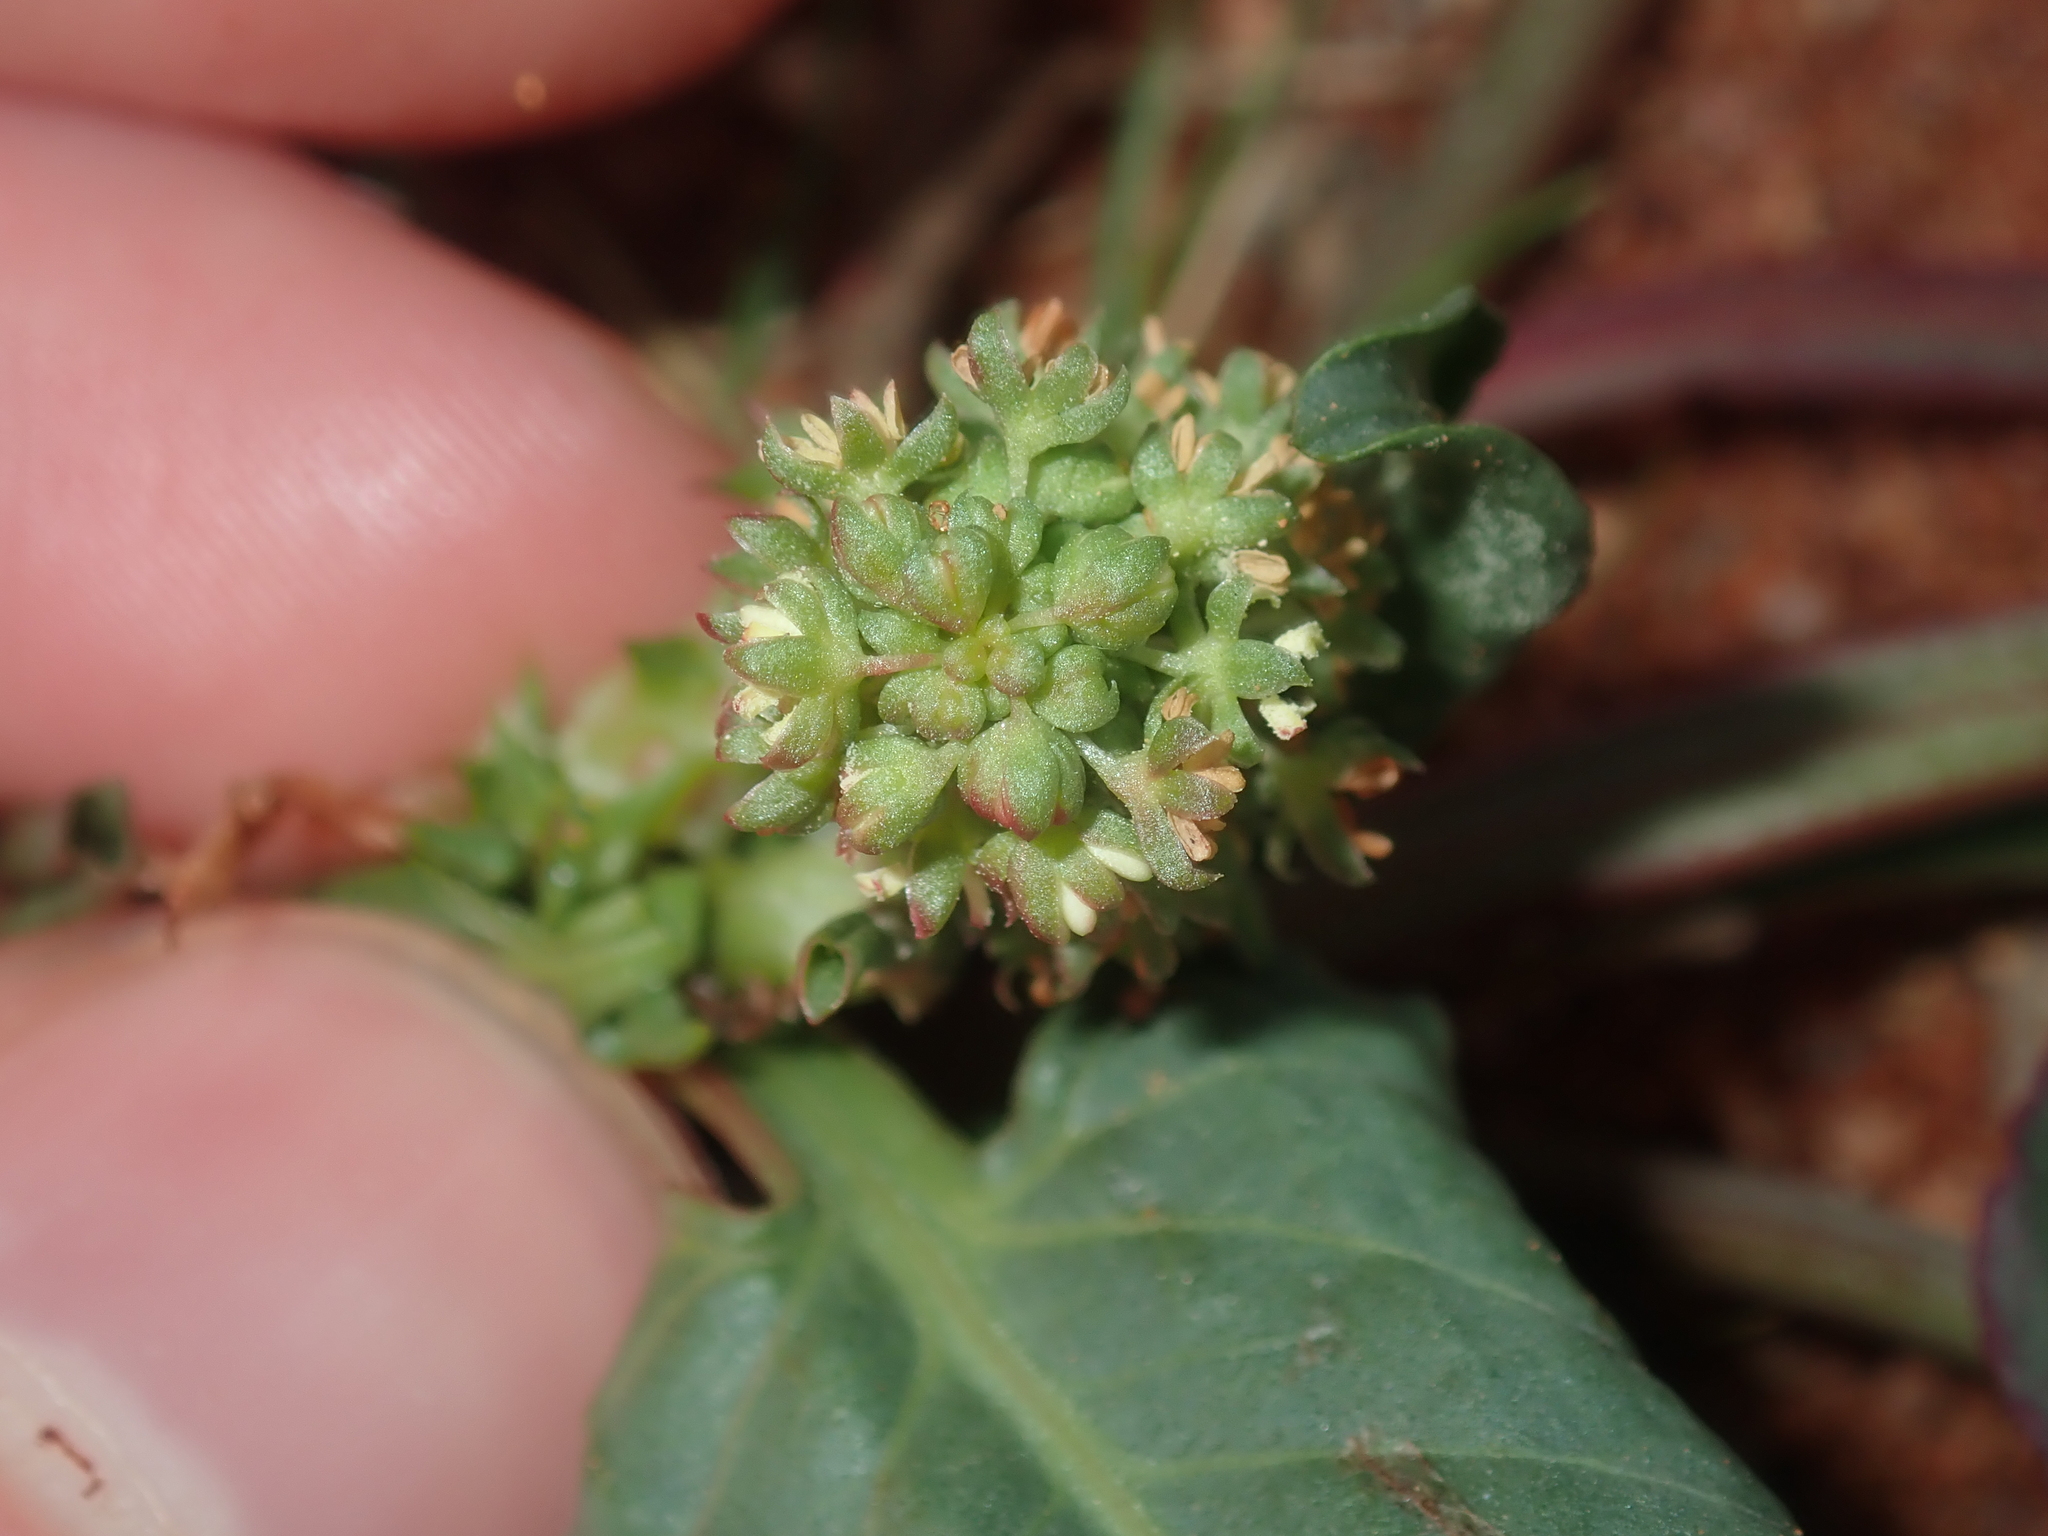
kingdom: Plantae
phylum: Tracheophyta
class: Magnoliopsida
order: Caryophyllales
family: Polygonaceae
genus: Rumex
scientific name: Rumex hypogaeus
